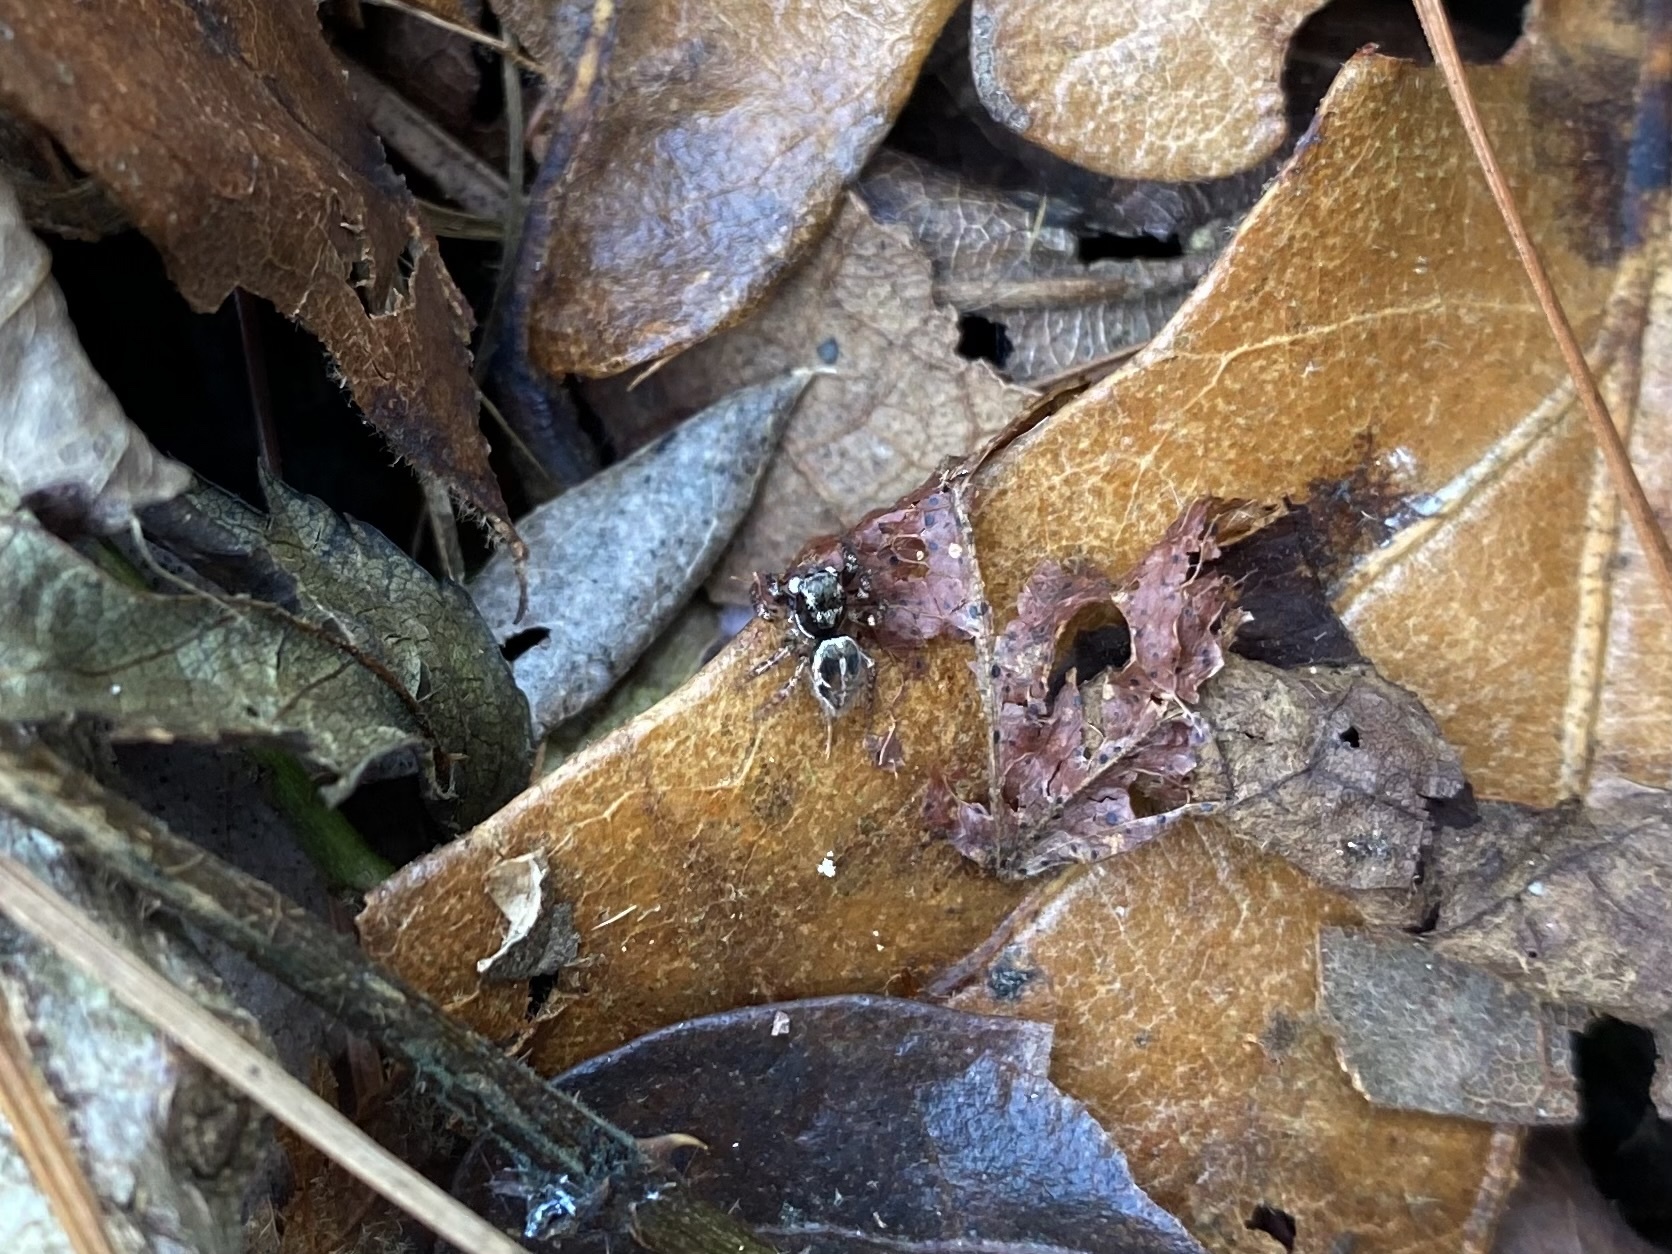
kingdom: Animalia
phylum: Arthropoda
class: Arachnida
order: Araneae
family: Salticidae
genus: Anasaitis
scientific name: Anasaitis canosa
